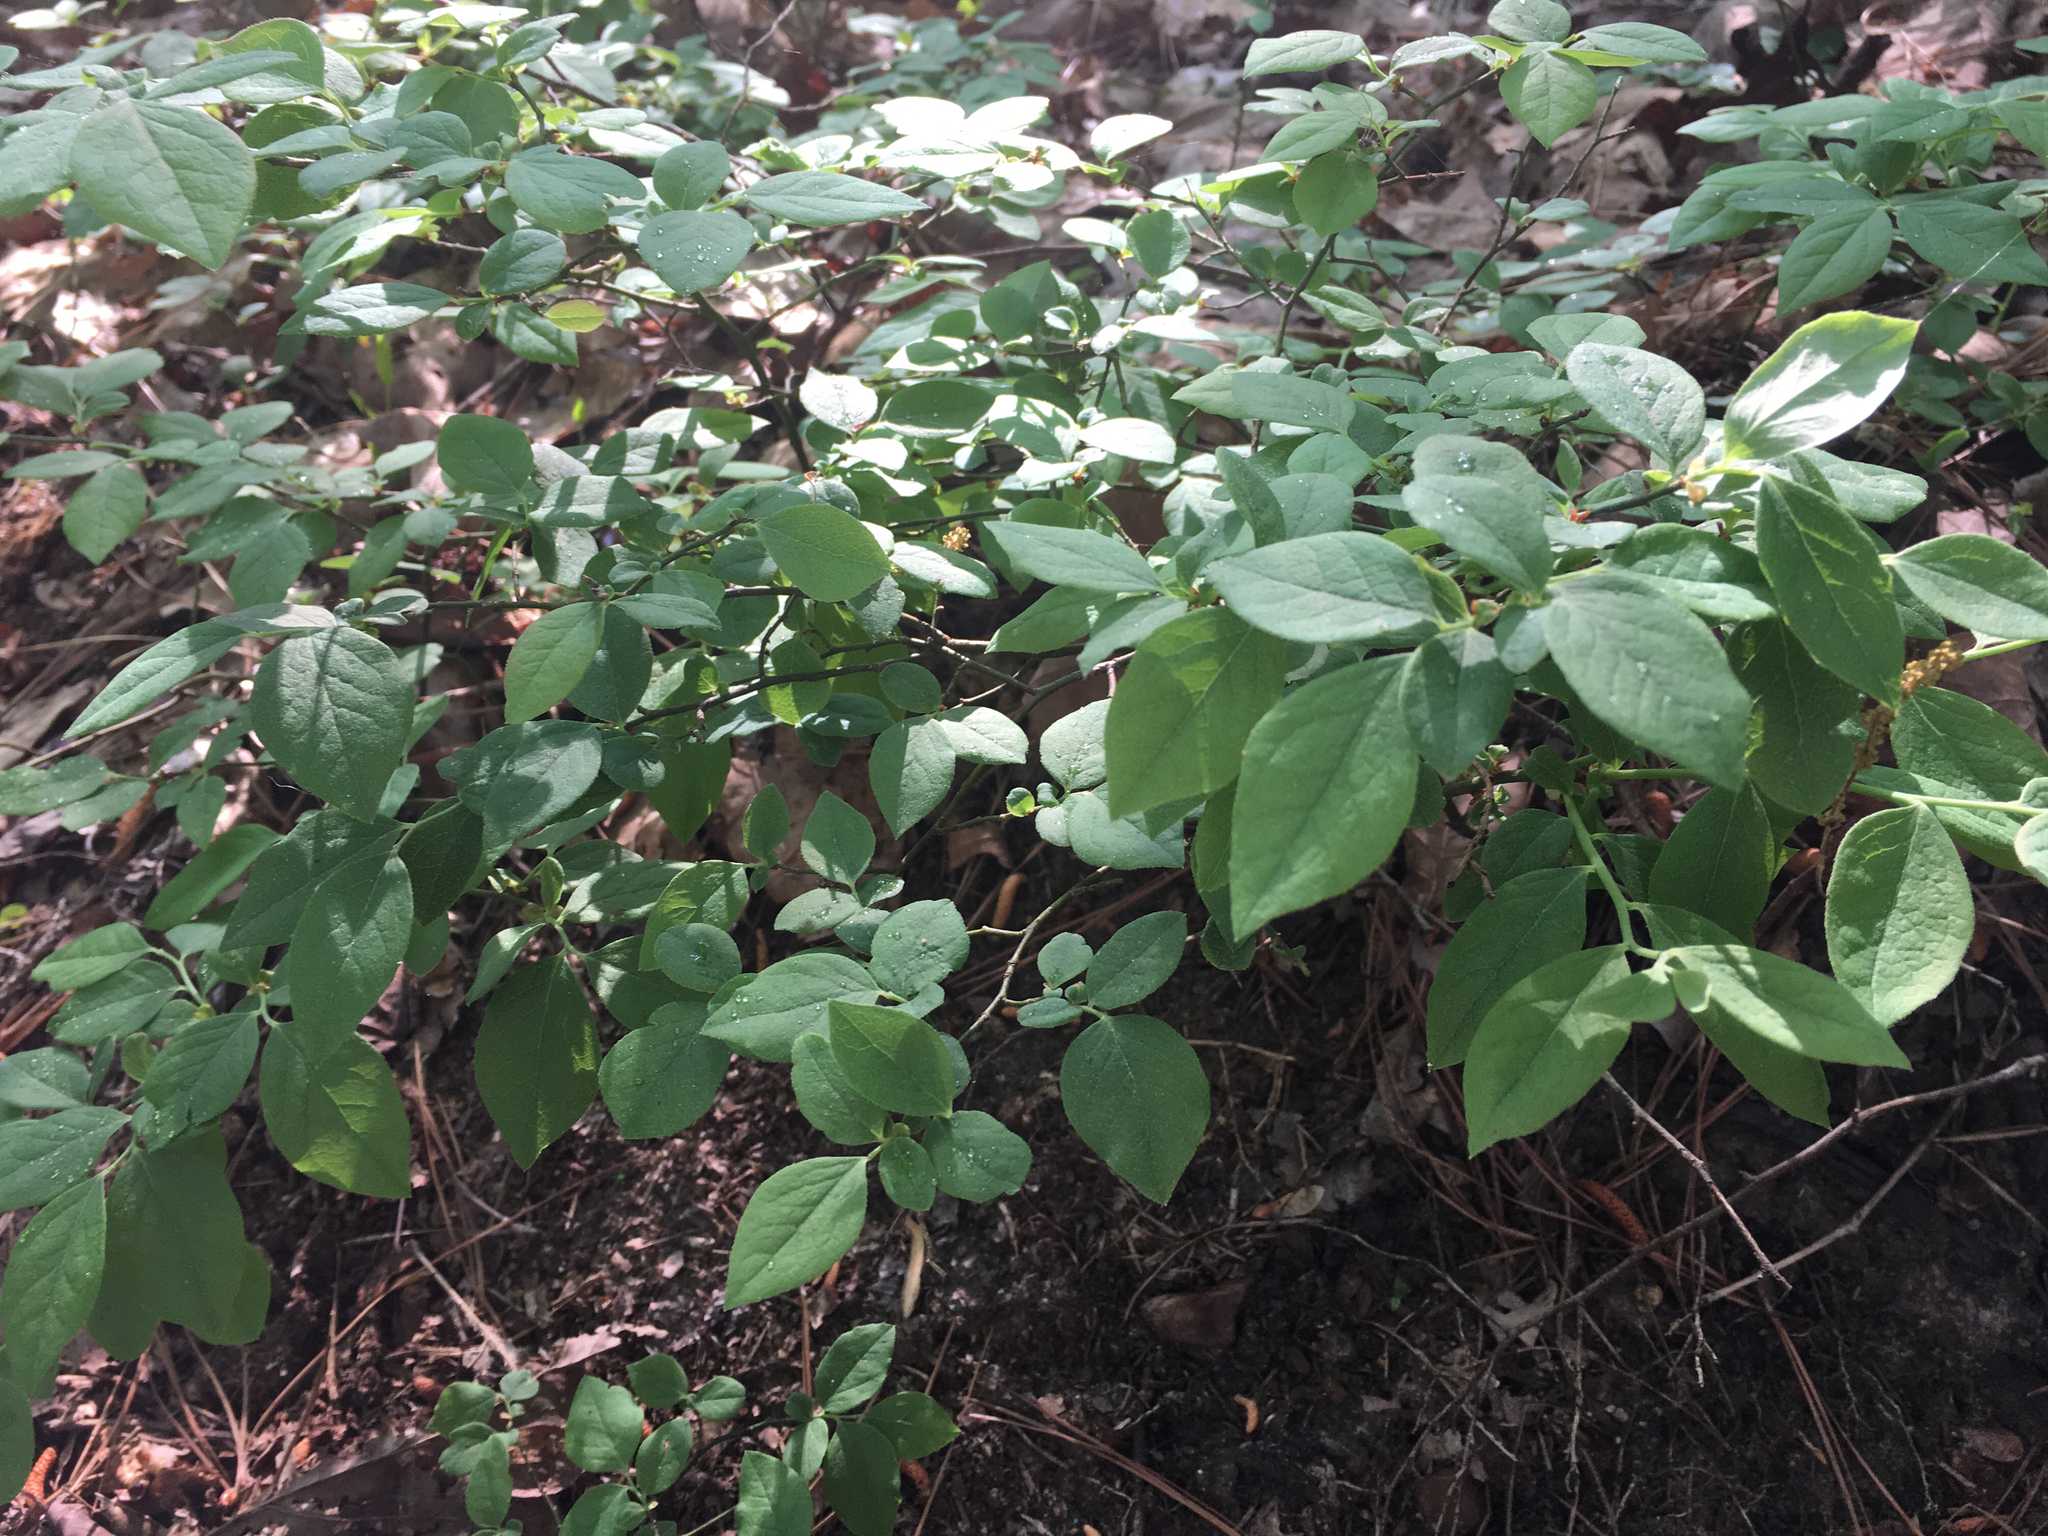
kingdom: Plantae
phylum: Tracheophyta
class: Magnoliopsida
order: Ericales
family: Ericaceae
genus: Vaccinium
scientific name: Vaccinium pallidum
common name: Blue ridge blueberry
